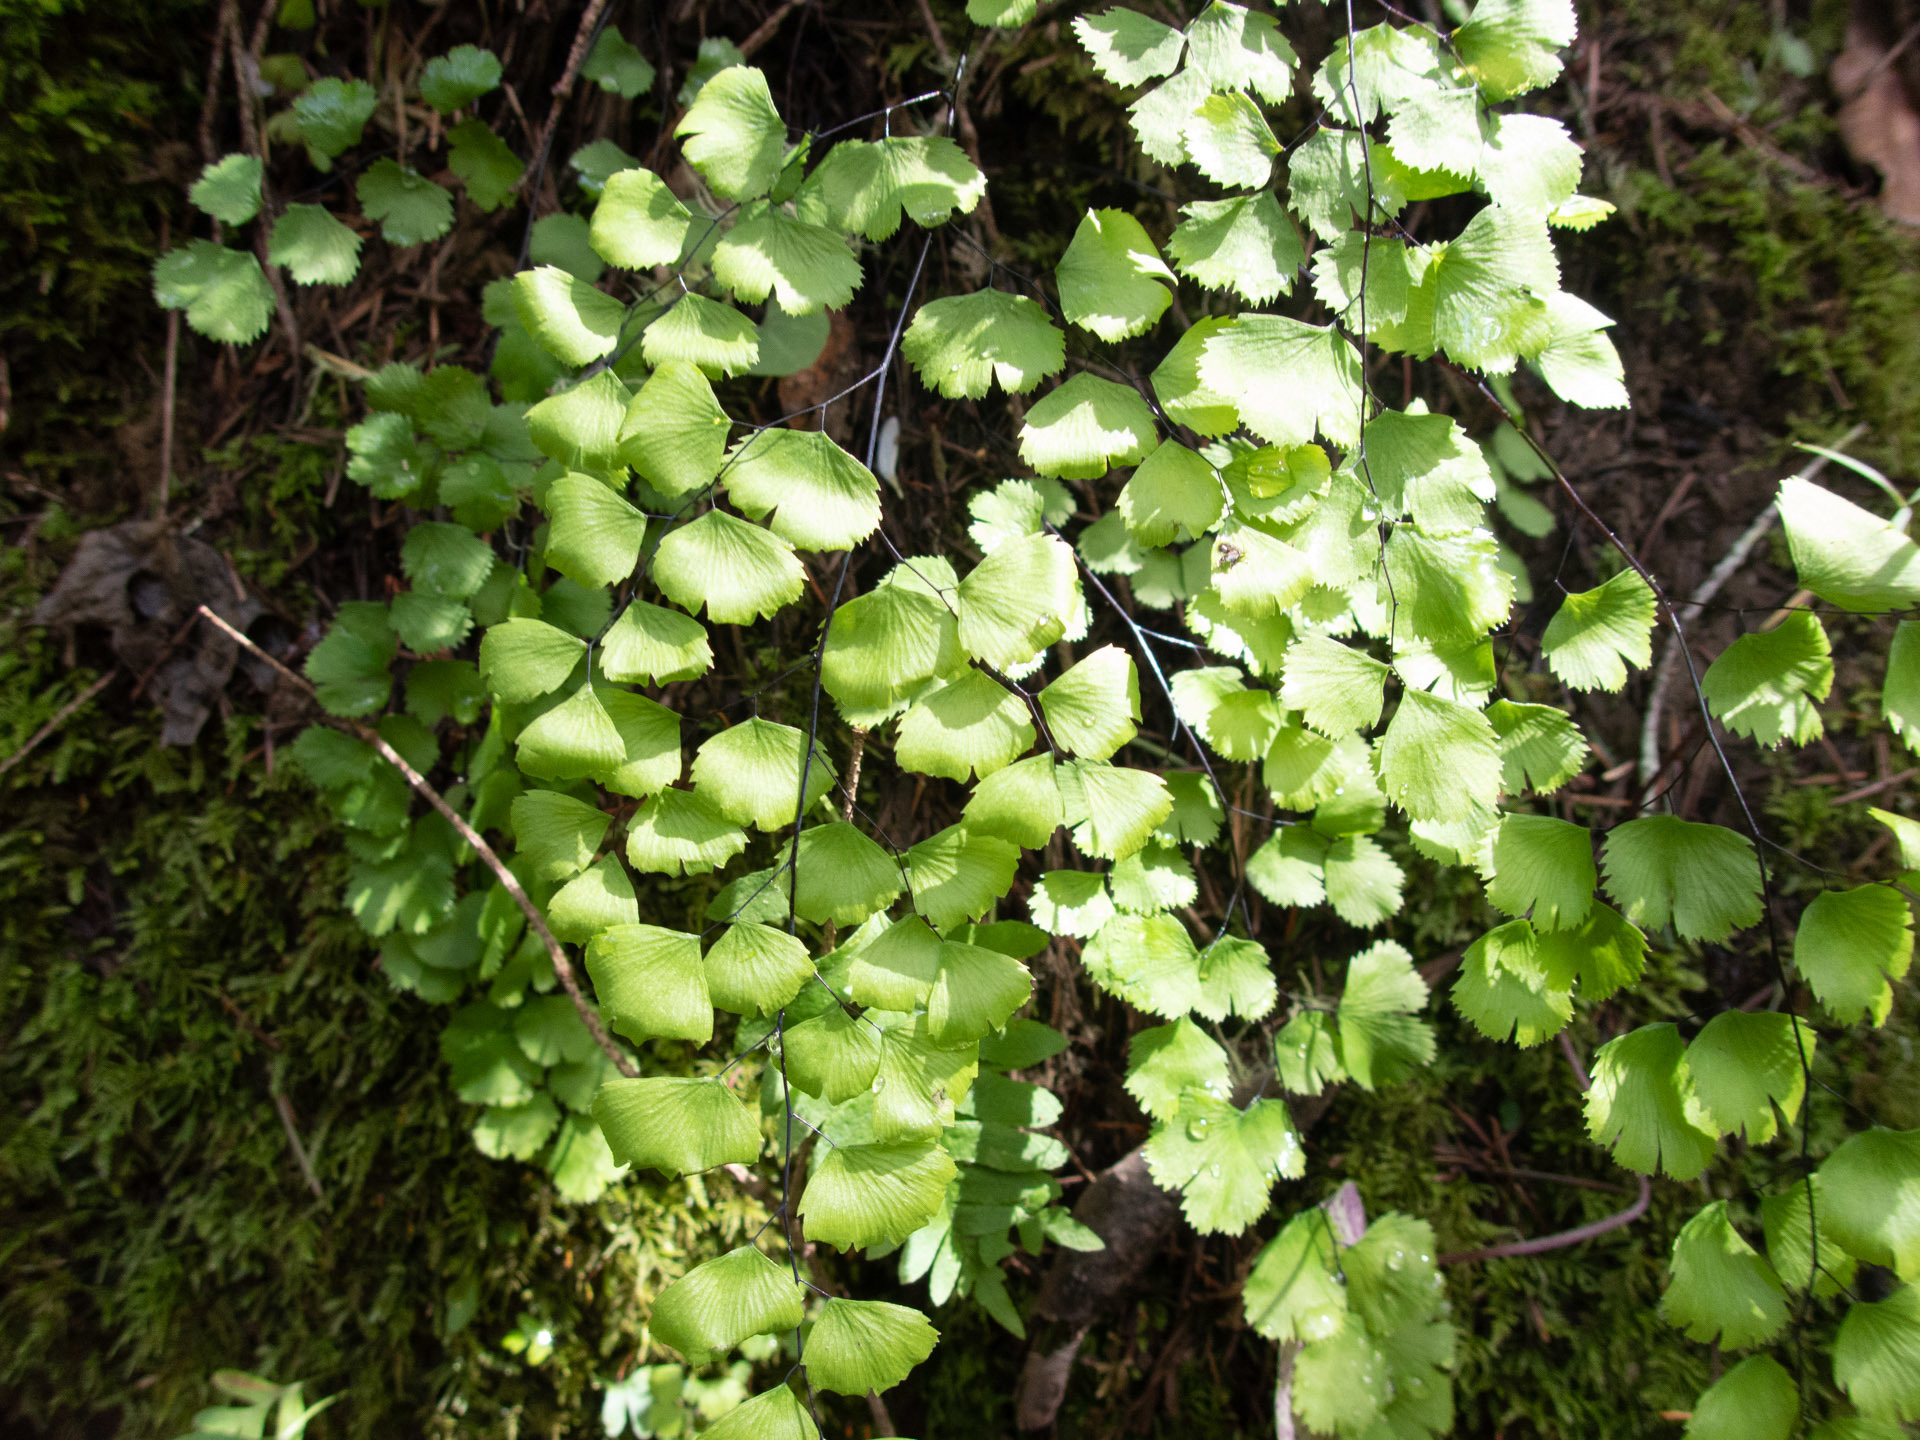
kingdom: Plantae
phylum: Tracheophyta
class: Polypodiopsida
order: Polypodiales
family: Pteridaceae
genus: Adiantum
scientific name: Adiantum jordanii
